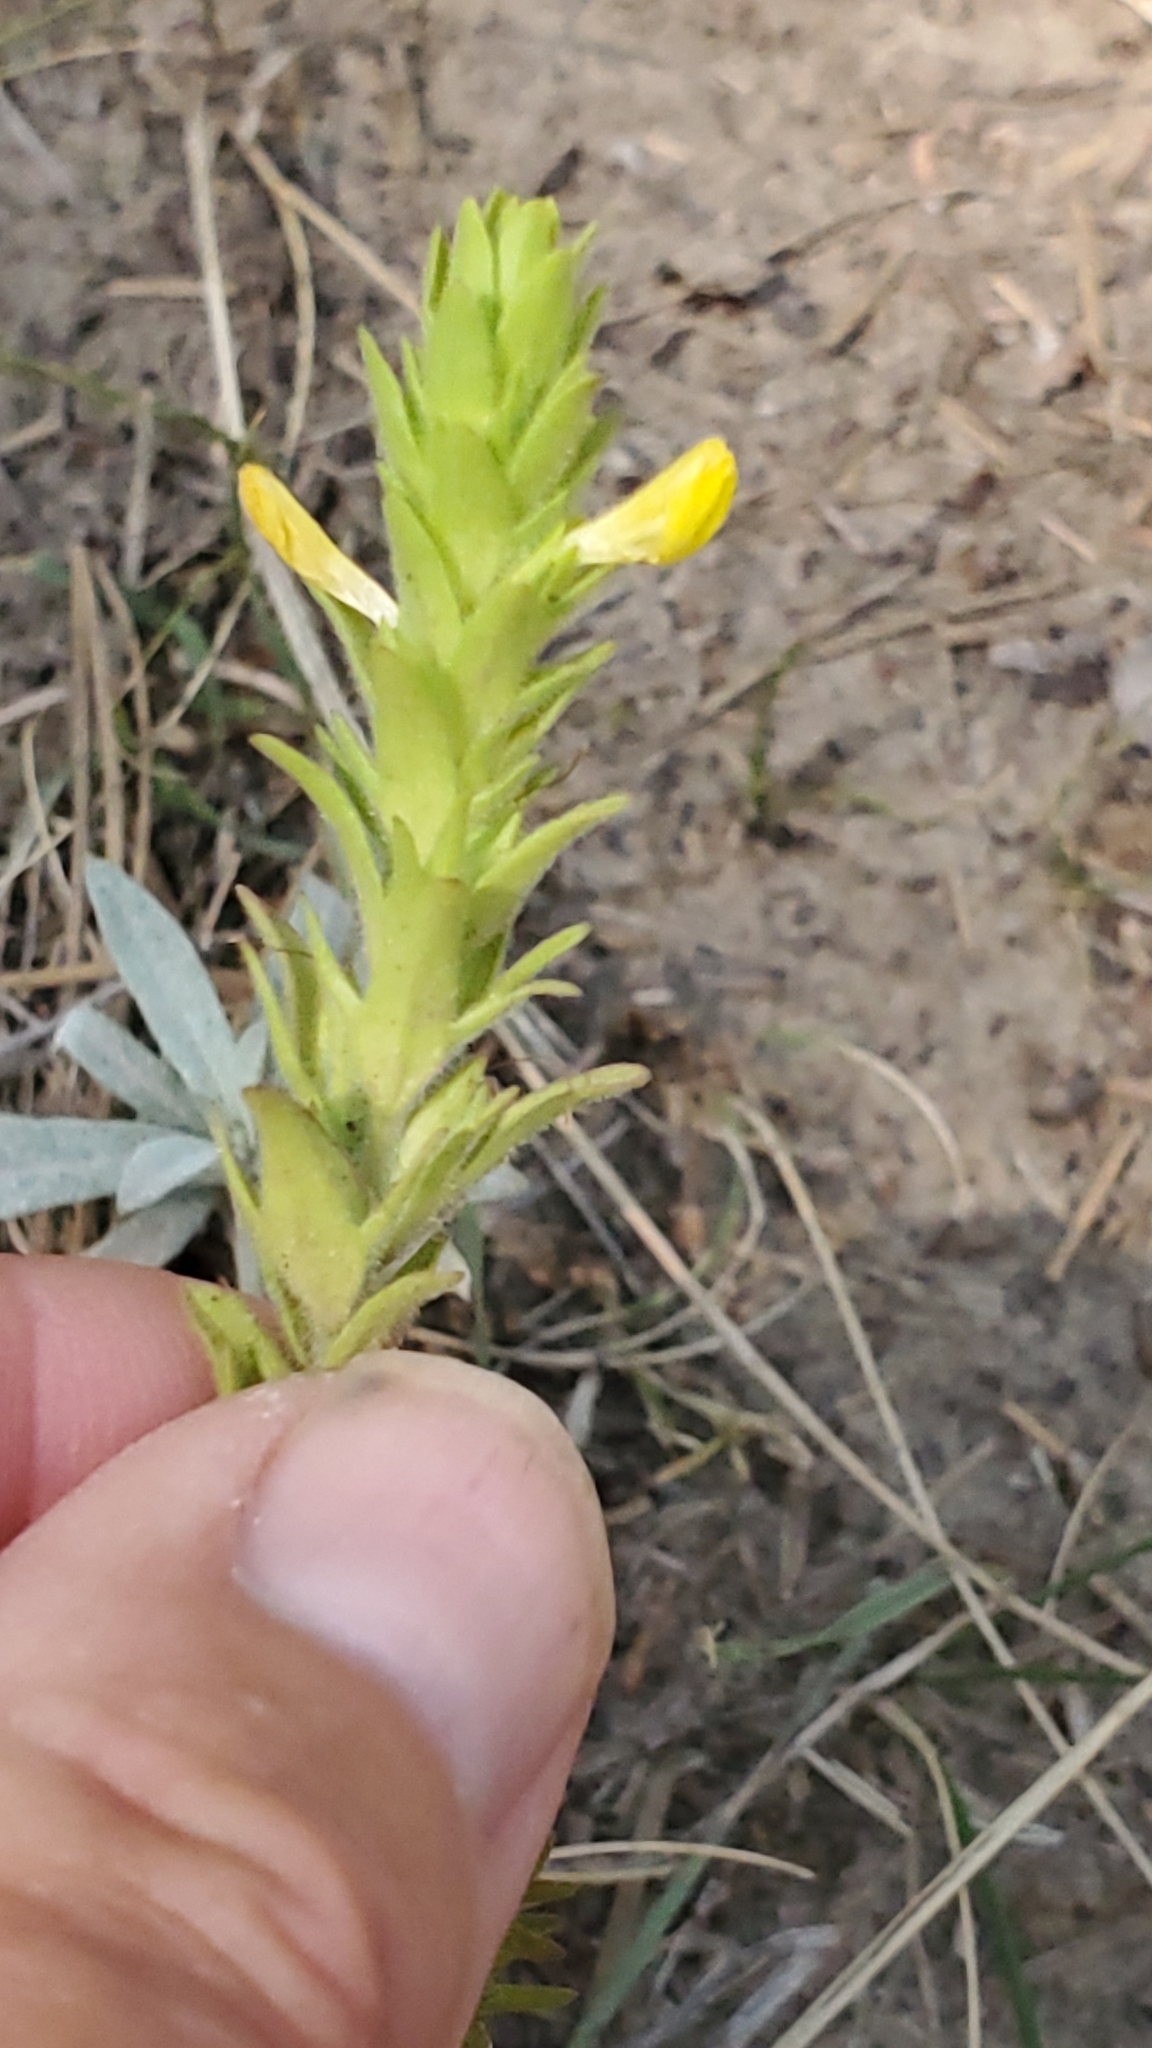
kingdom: Plantae
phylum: Tracheophyta
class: Magnoliopsida
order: Lamiales
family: Orobanchaceae
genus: Orthocarpus
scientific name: Orthocarpus luteus
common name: Golden-tongue owl's-clover
